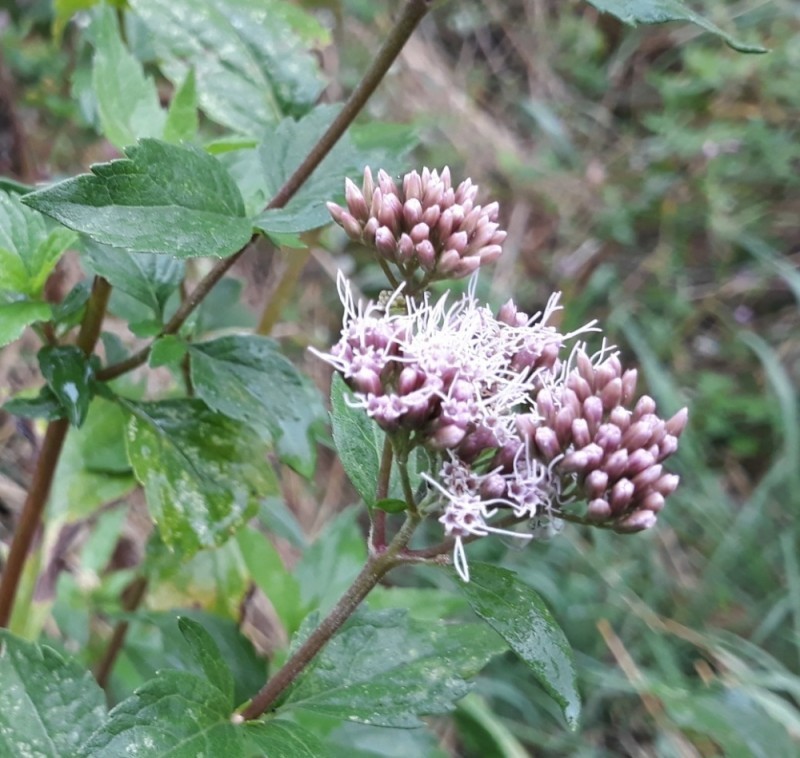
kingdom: Plantae
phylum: Tracheophyta
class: Magnoliopsida
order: Asterales
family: Asteraceae
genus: Eupatorium
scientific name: Eupatorium cannabinum
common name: Hemp-agrimony
